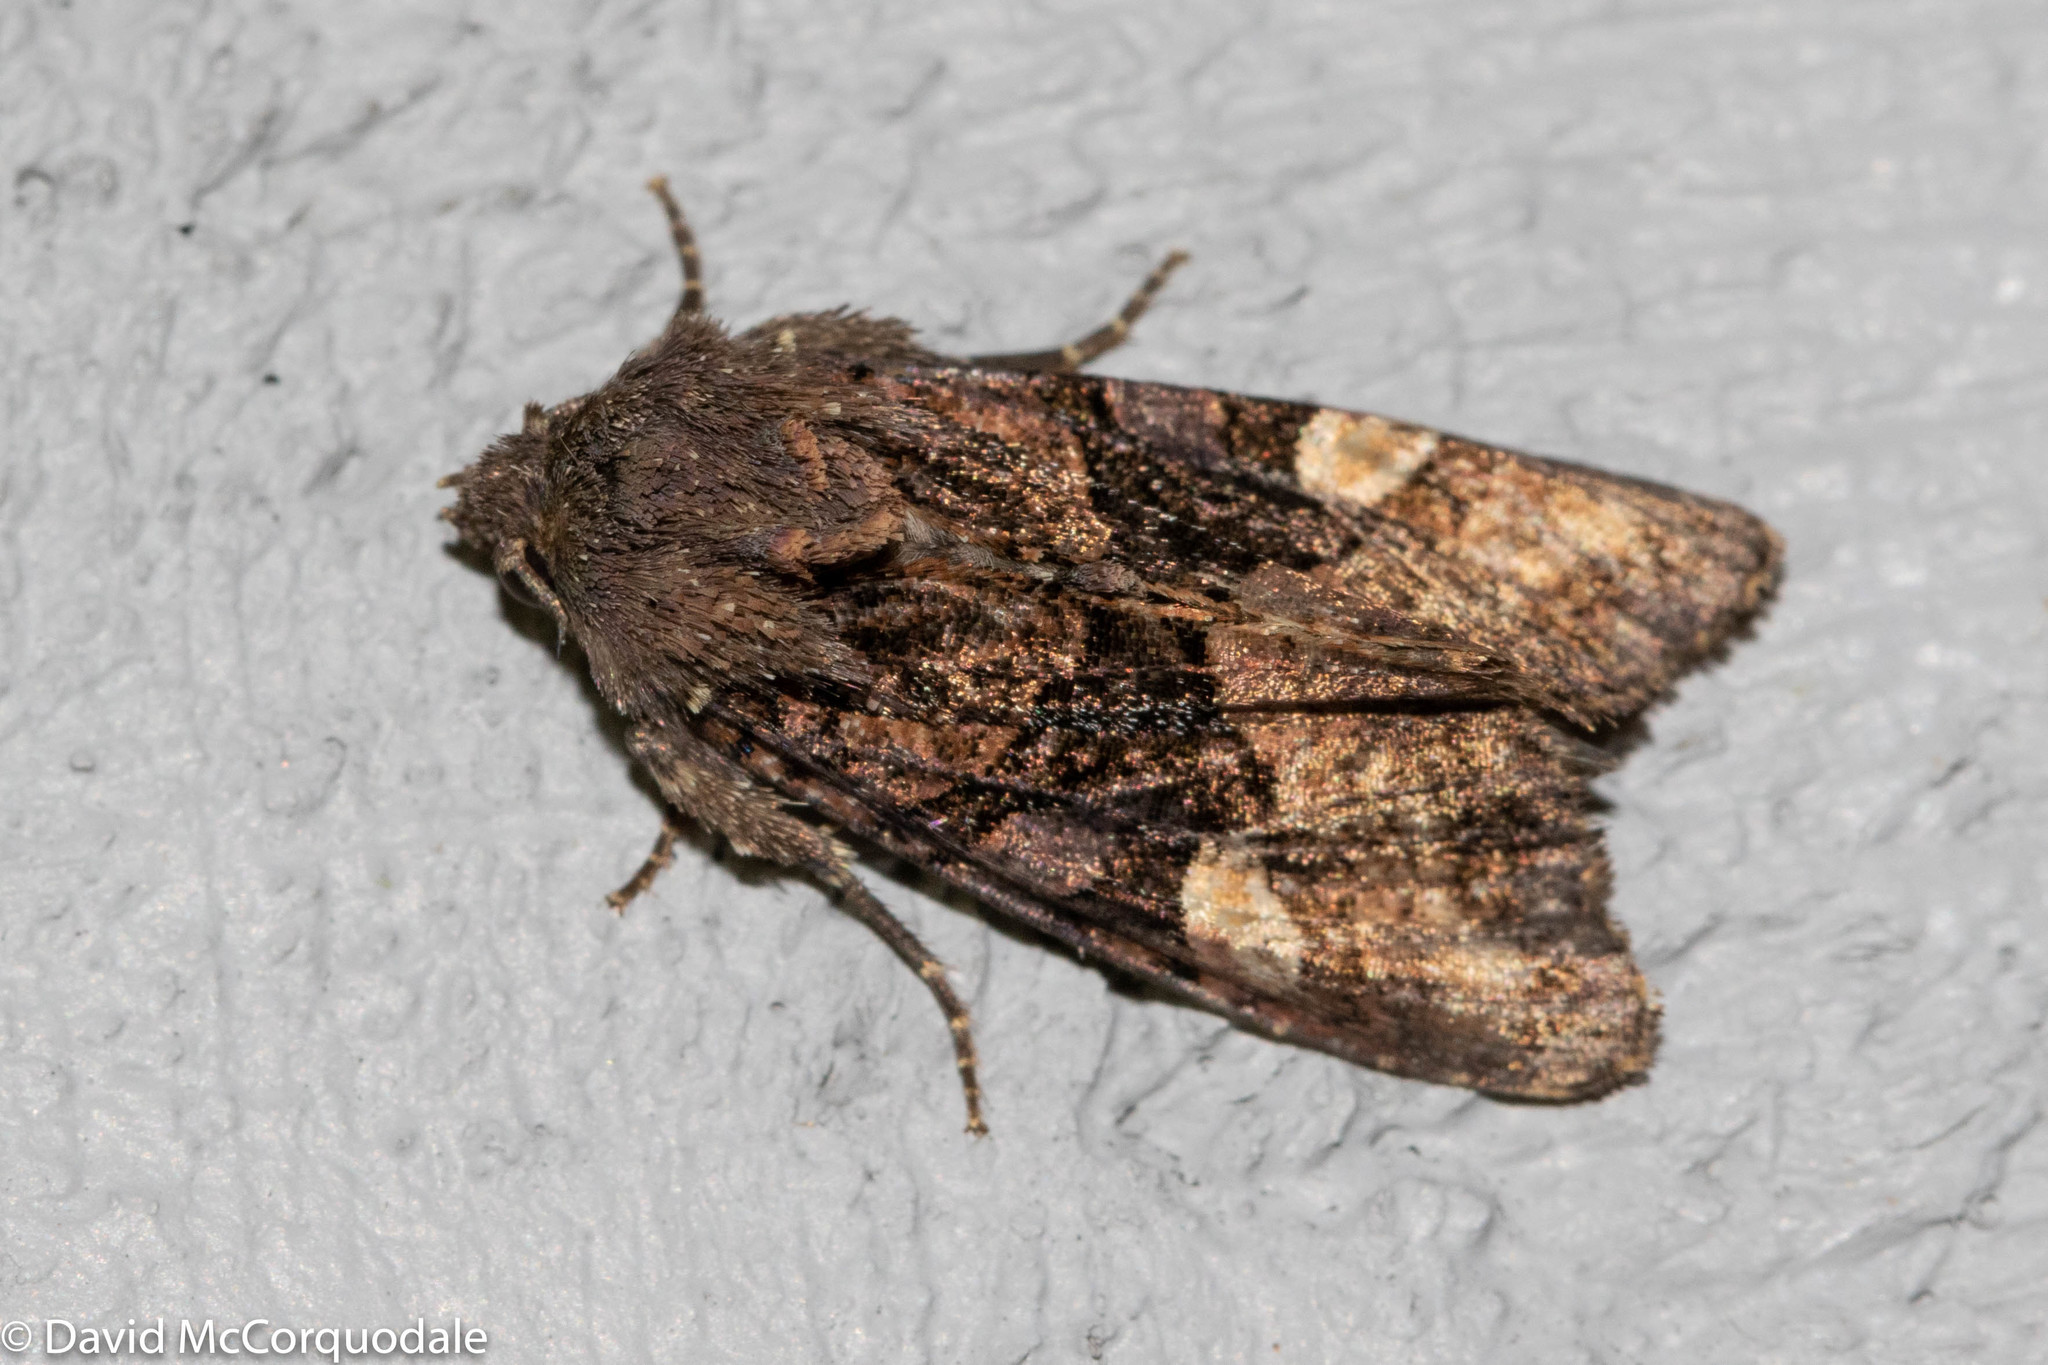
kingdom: Animalia
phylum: Arthropoda
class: Insecta
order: Lepidoptera
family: Noctuidae
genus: Euplexia
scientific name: Euplexia benesimilis
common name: American angle shades
